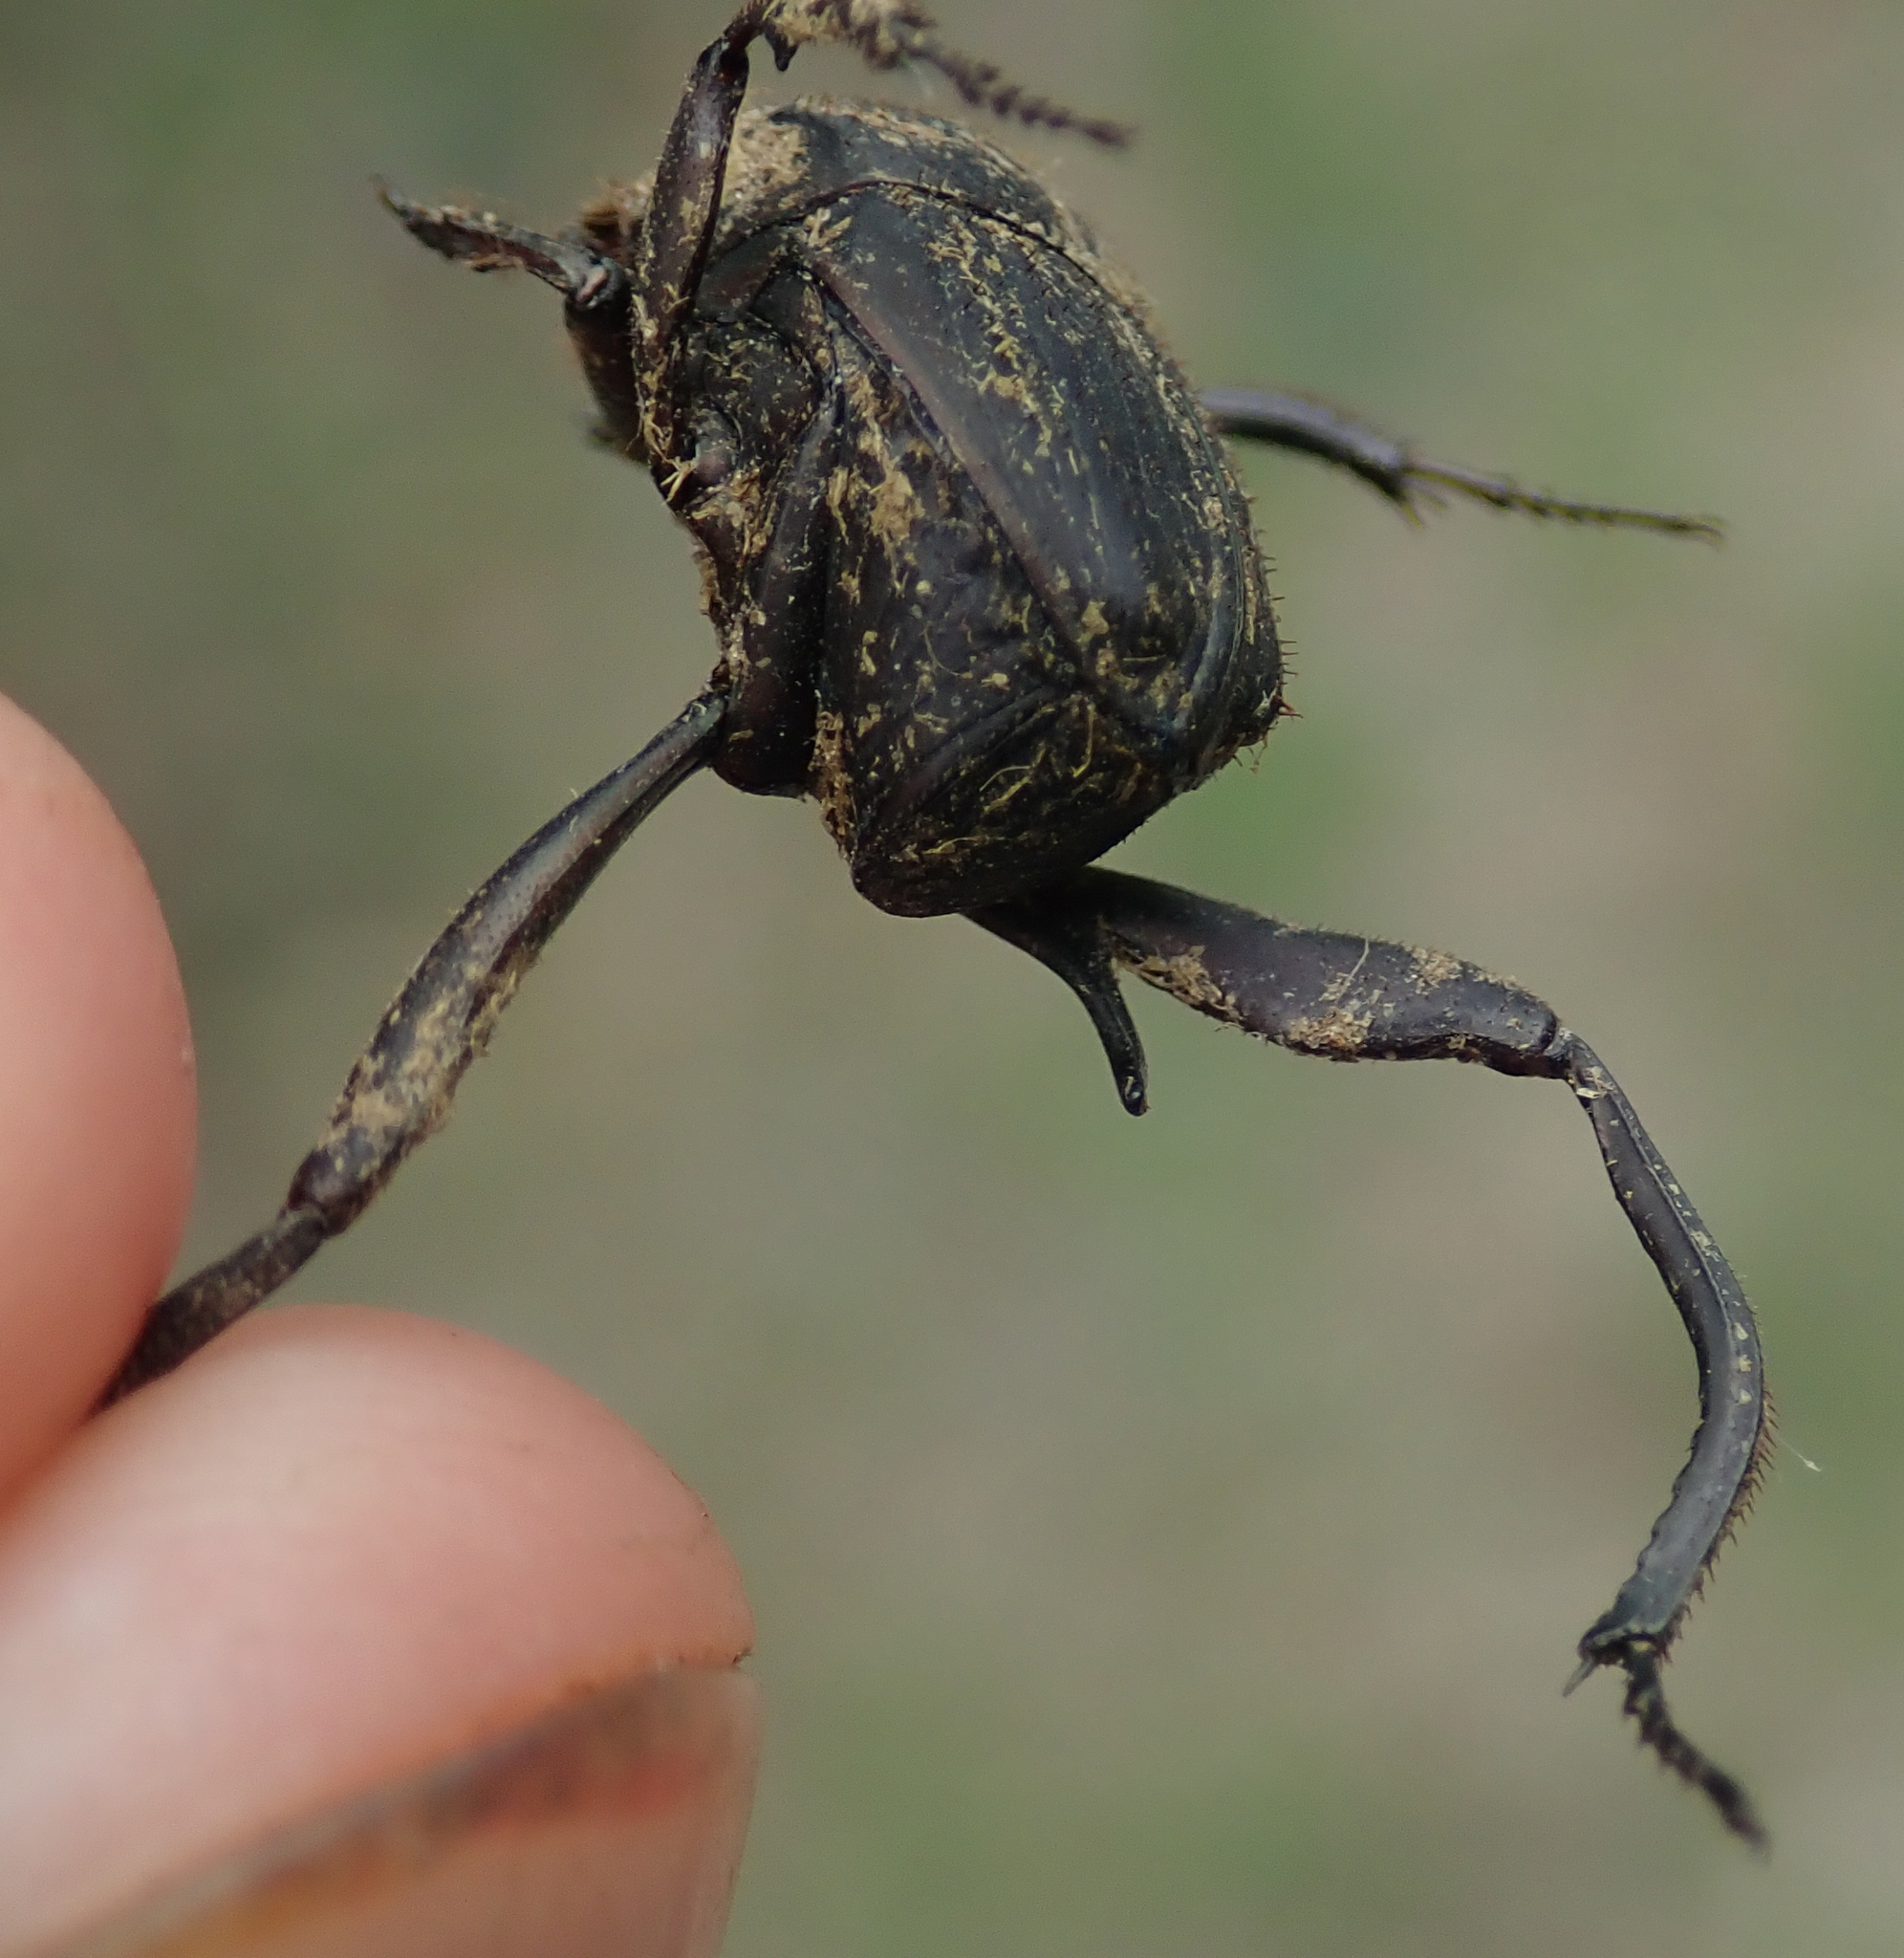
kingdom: Animalia
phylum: Arthropoda
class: Insecta
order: Coleoptera
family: Scarabaeidae
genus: Neosisyphus
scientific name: Neosisyphus fortuitus
